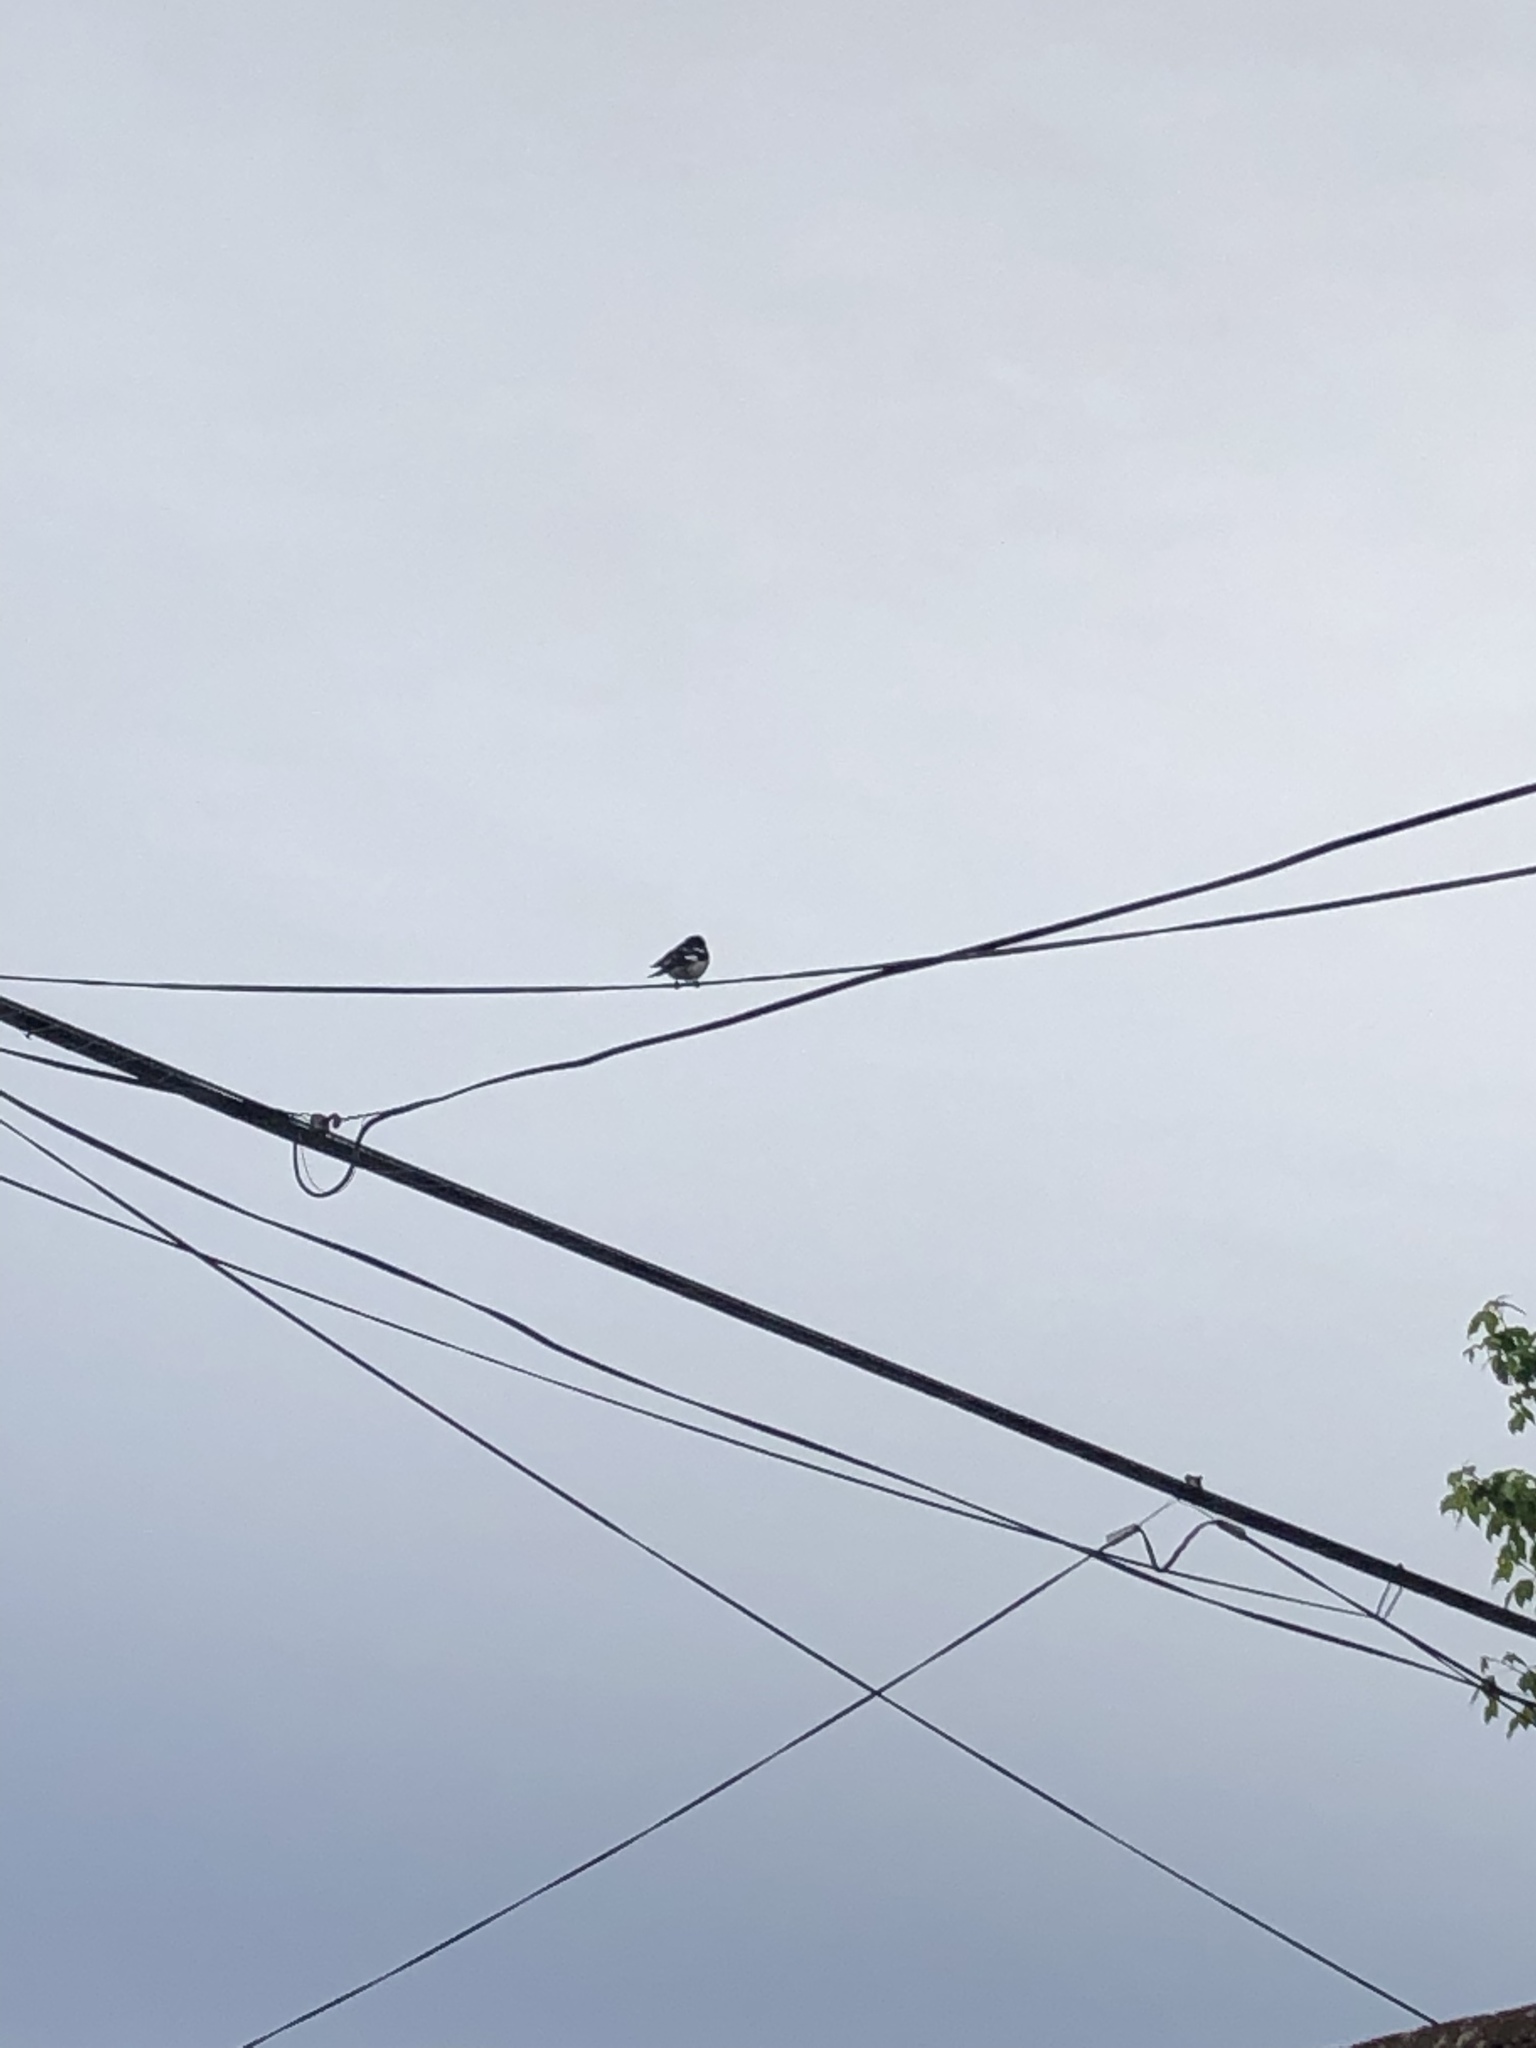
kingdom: Animalia
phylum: Chordata
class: Aves
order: Passeriformes
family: Cardinalidae
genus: Pheucticus
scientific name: Pheucticus ludovicianus
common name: Rose-breasted grosbeak
